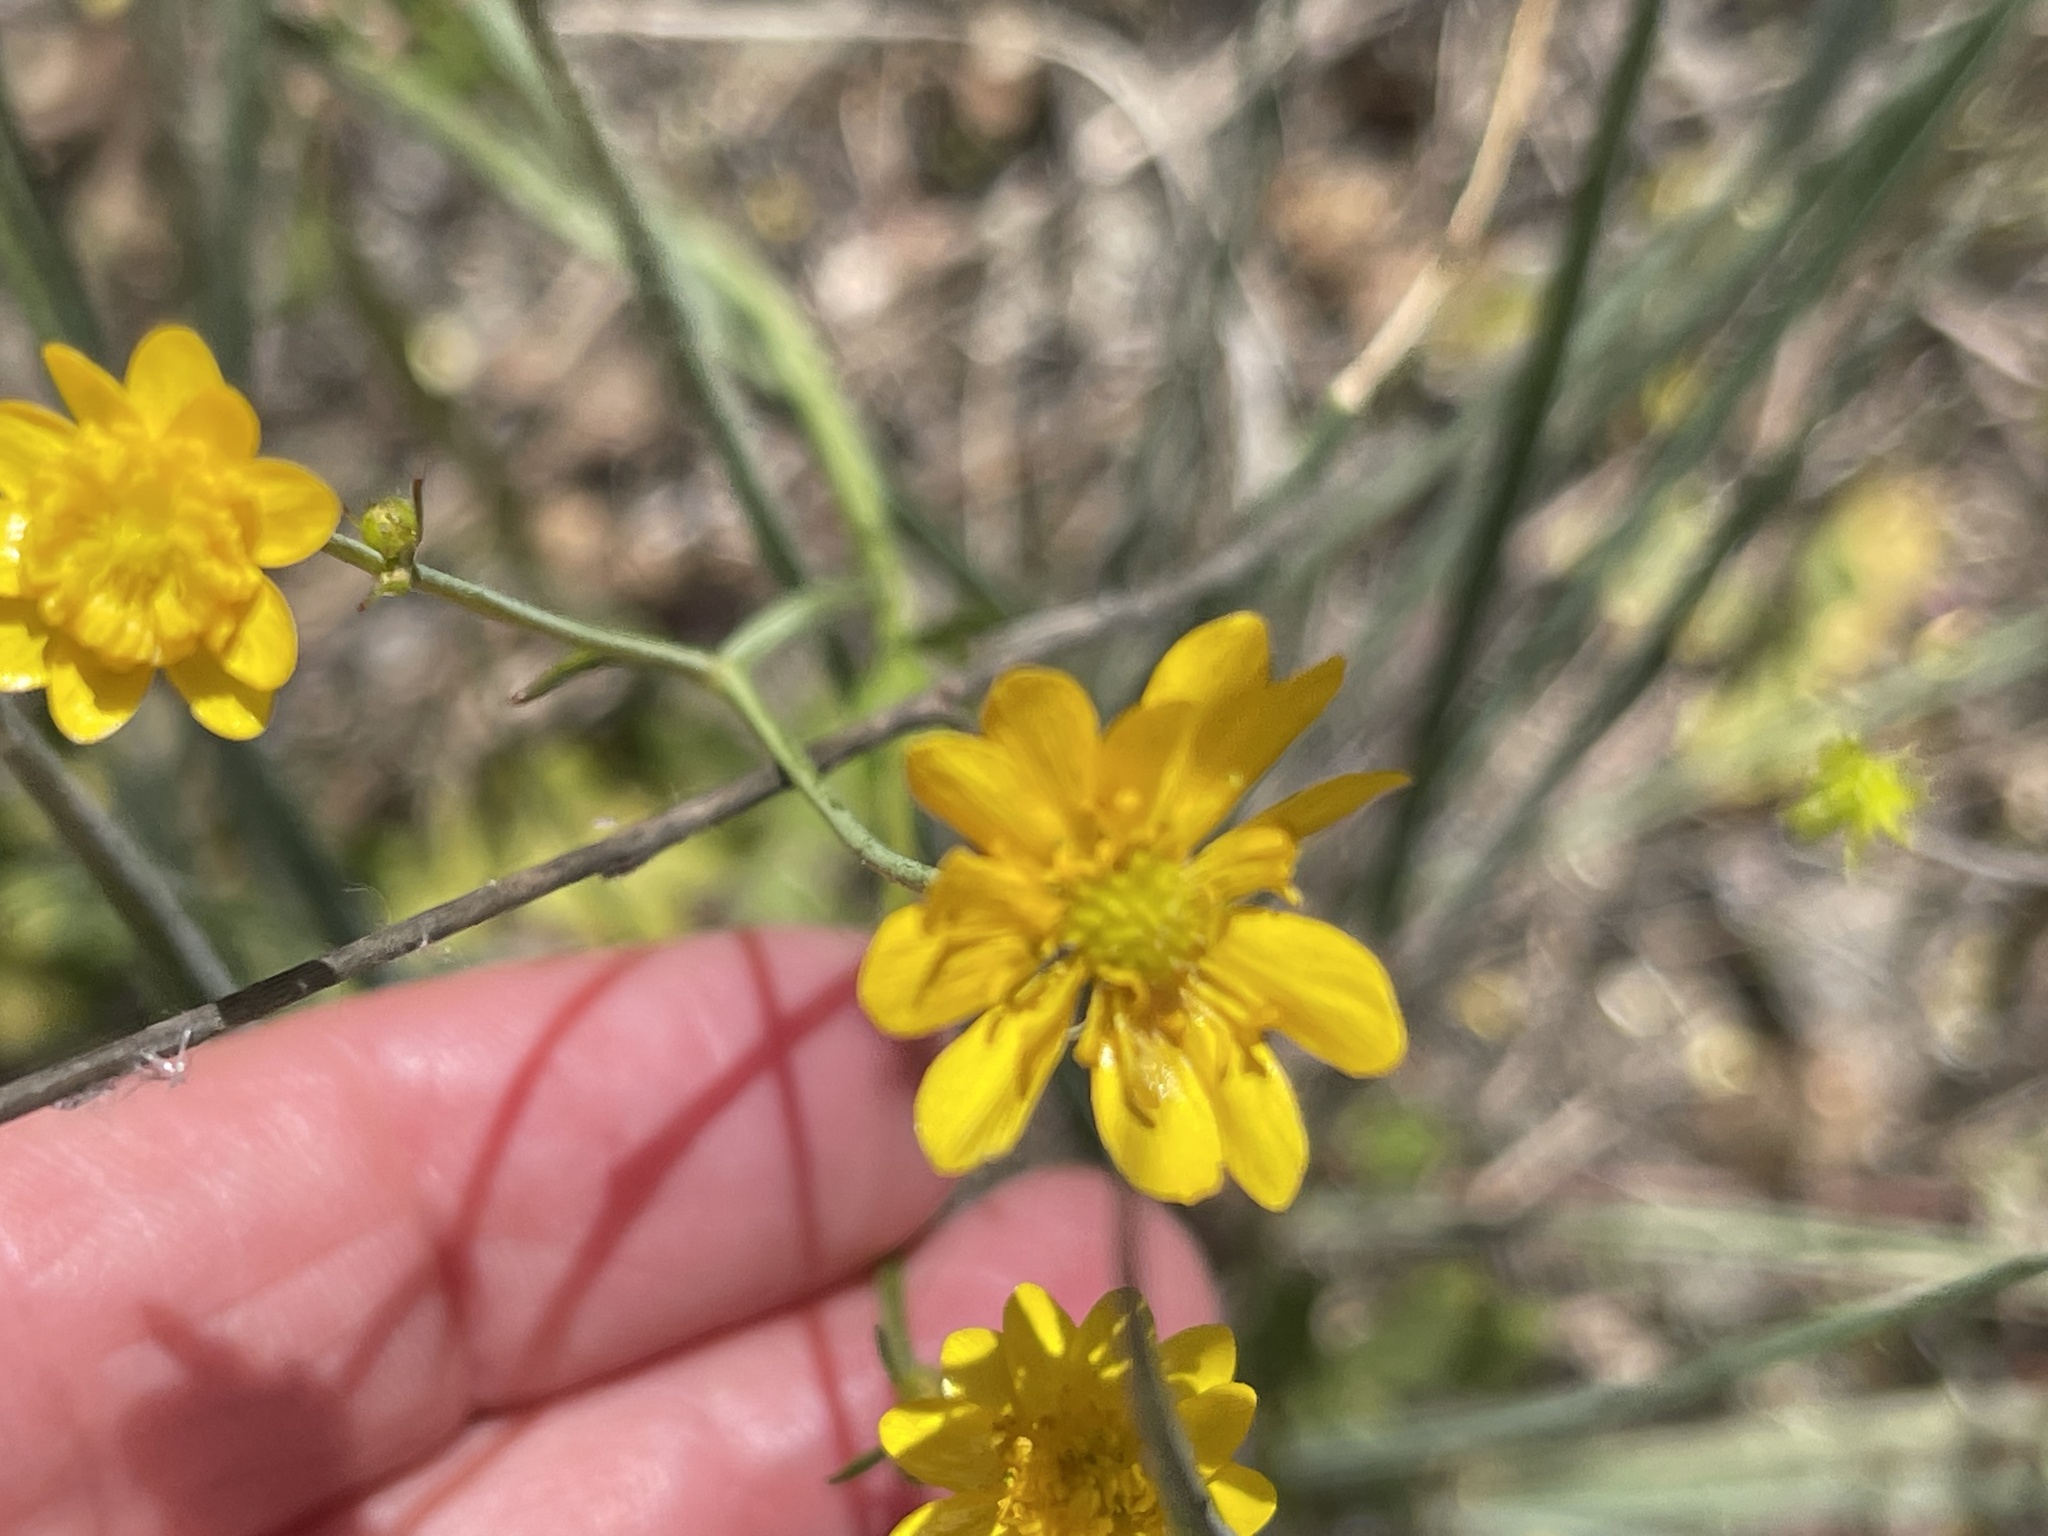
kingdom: Plantae
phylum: Tracheophyta
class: Magnoliopsida
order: Ranunculales
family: Ranunculaceae
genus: Ranunculus
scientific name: Ranunculus californicus
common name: California buttercup
